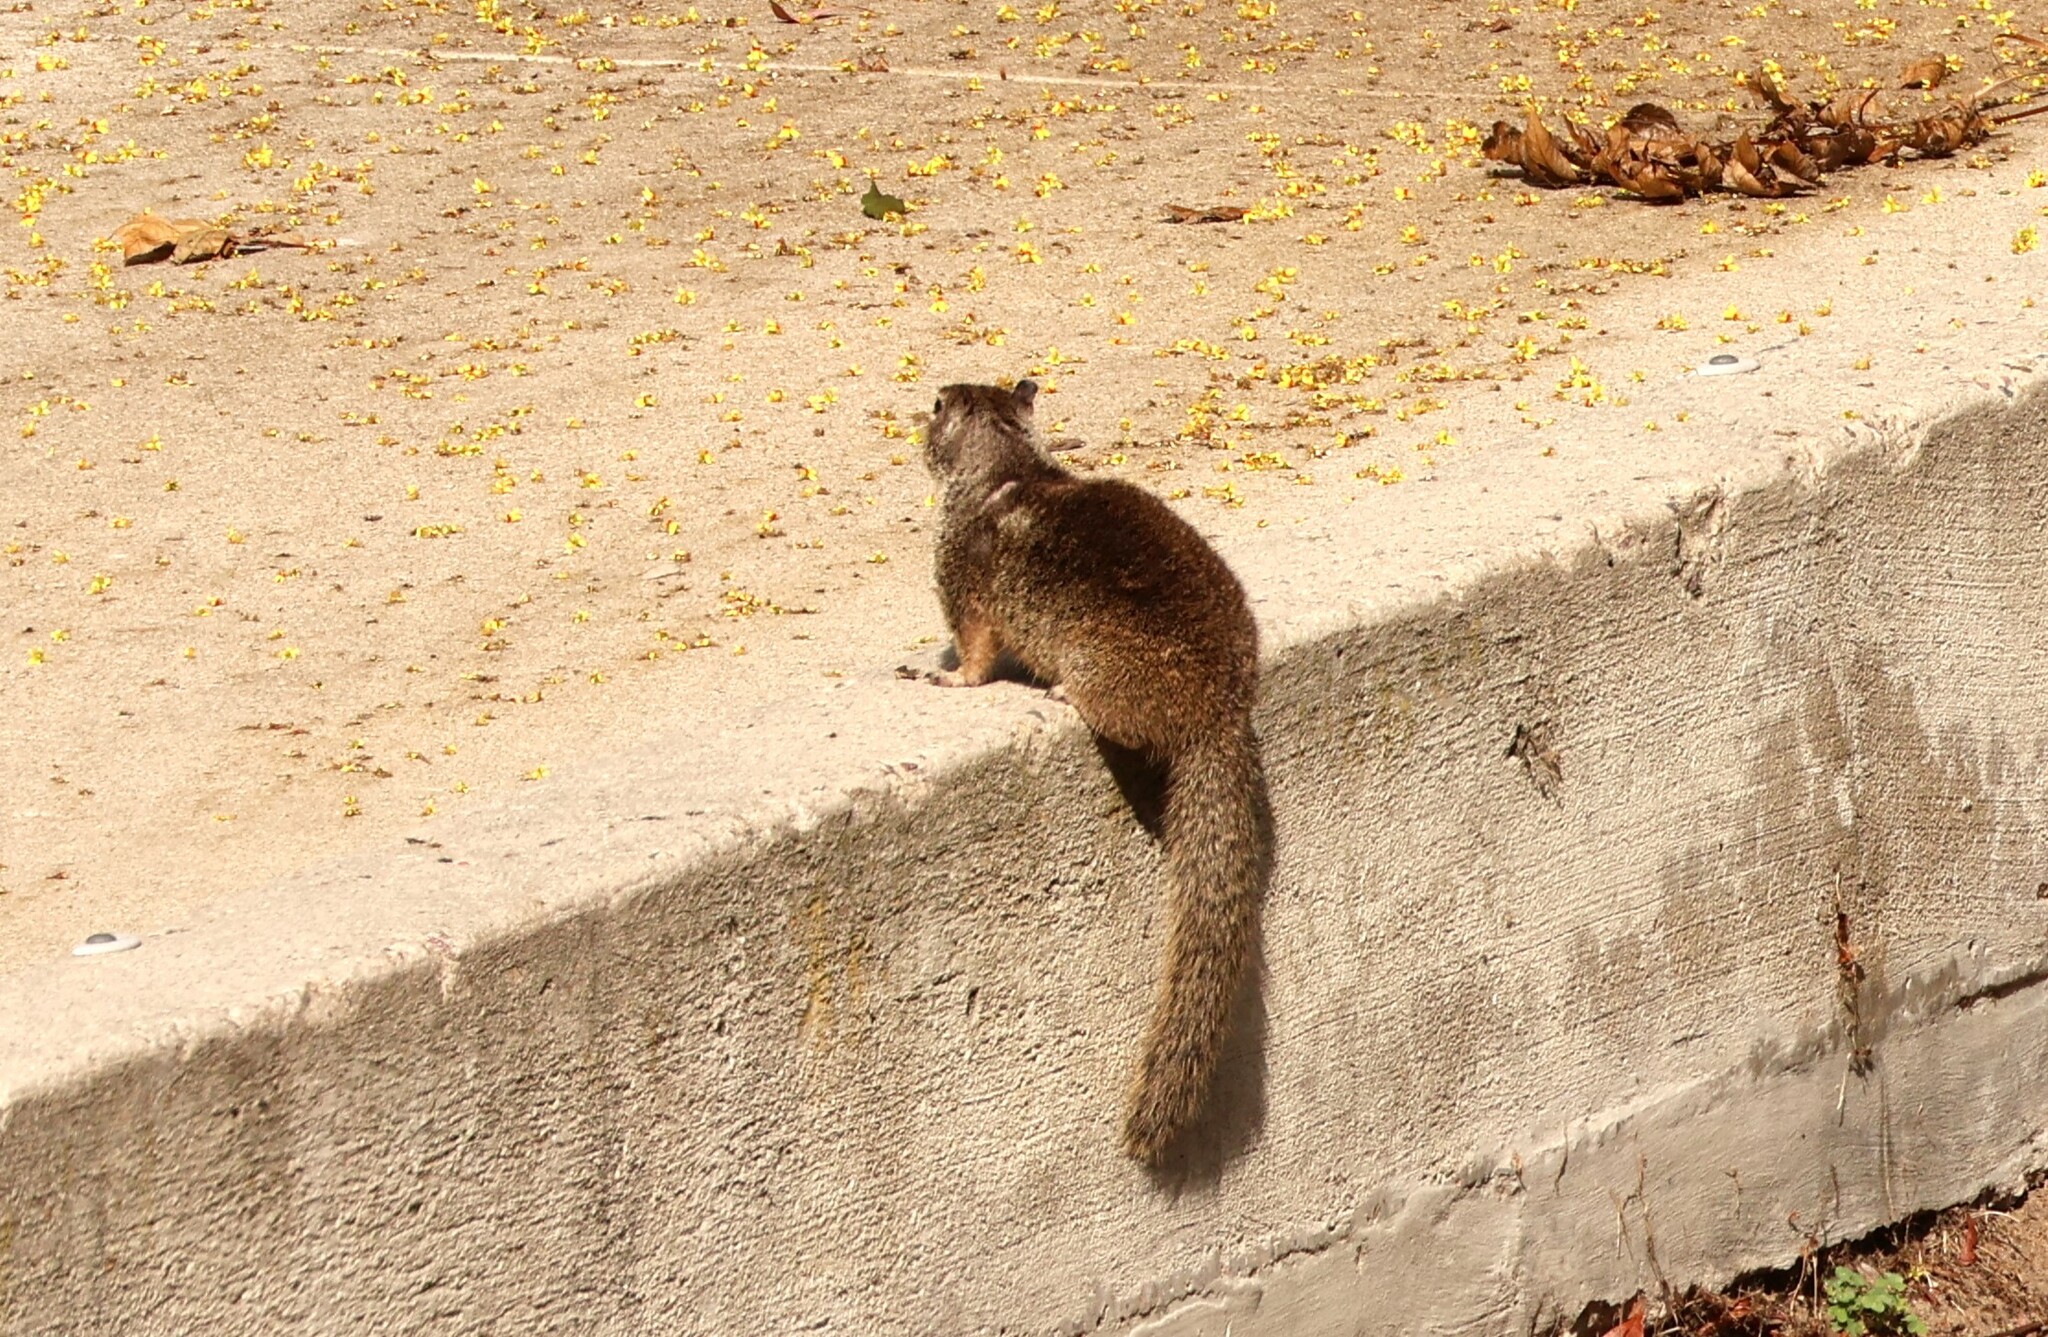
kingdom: Animalia
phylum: Chordata
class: Mammalia
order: Rodentia
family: Sciuridae
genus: Otospermophilus
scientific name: Otospermophilus beecheyi
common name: California ground squirrel
